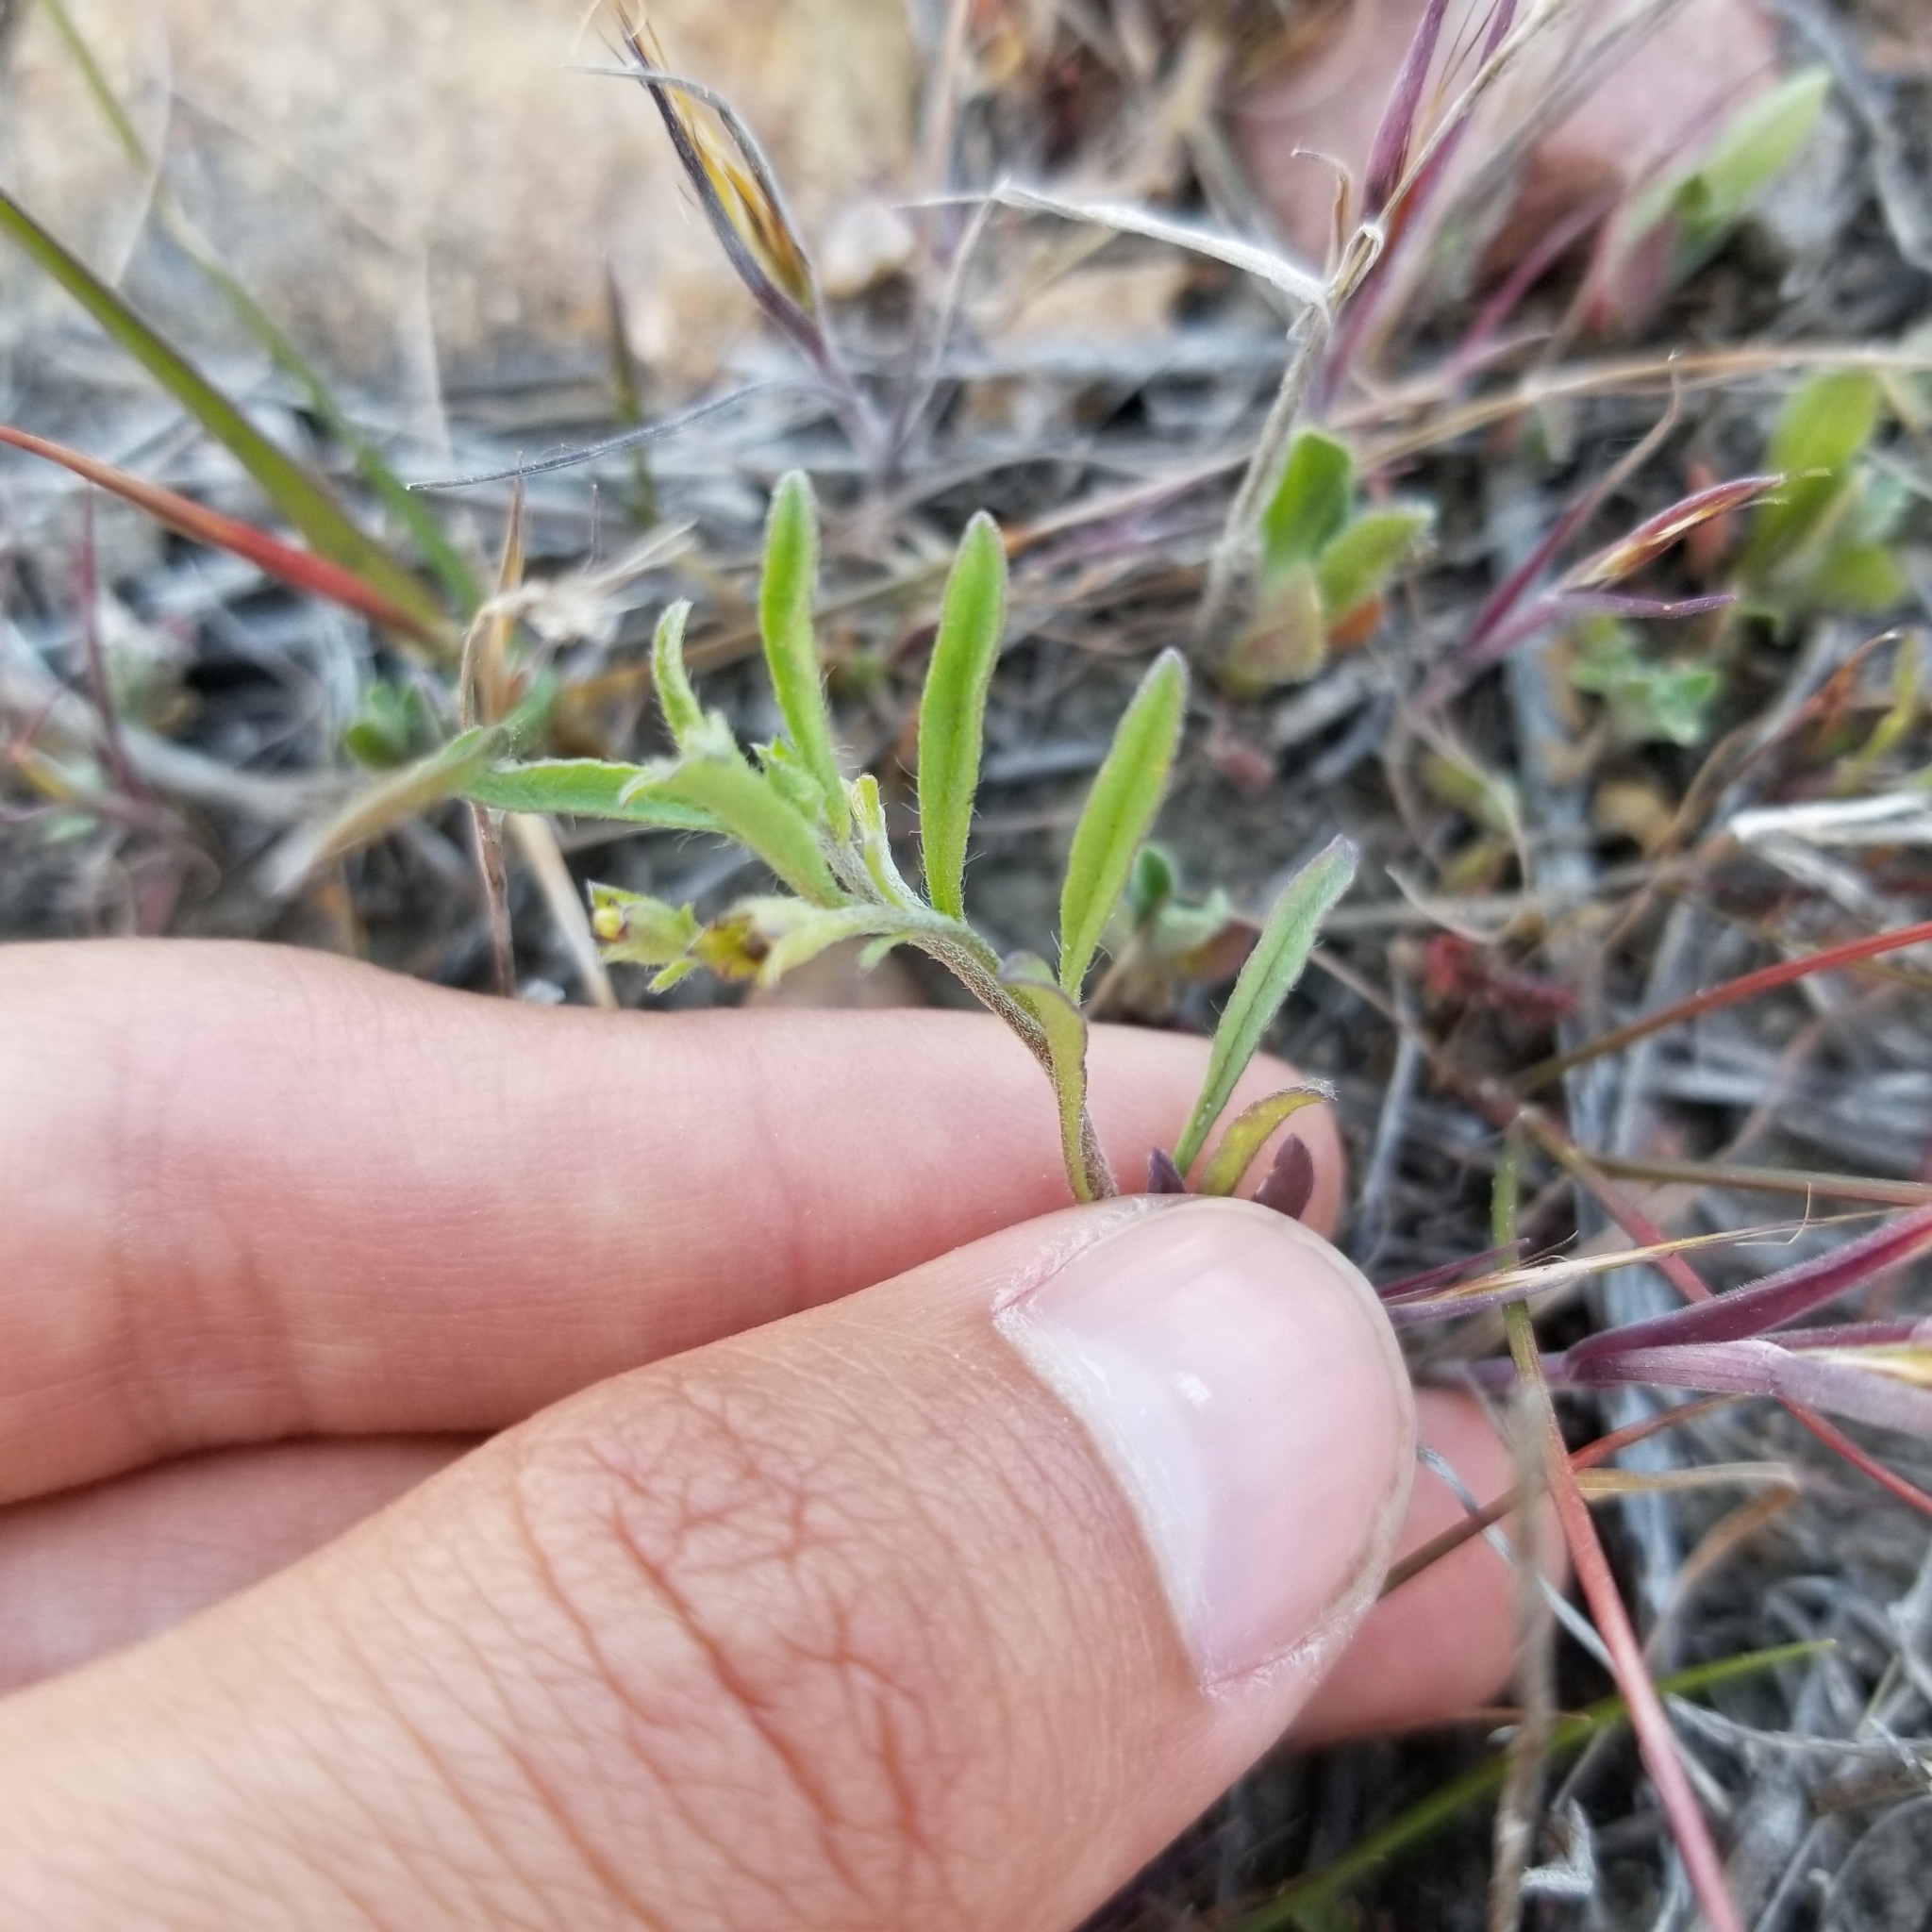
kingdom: Plantae
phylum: Tracheophyta
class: Magnoliopsida
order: Solanales
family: Convolvulaceae
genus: Convolvulus
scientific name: Convolvulus simulans
